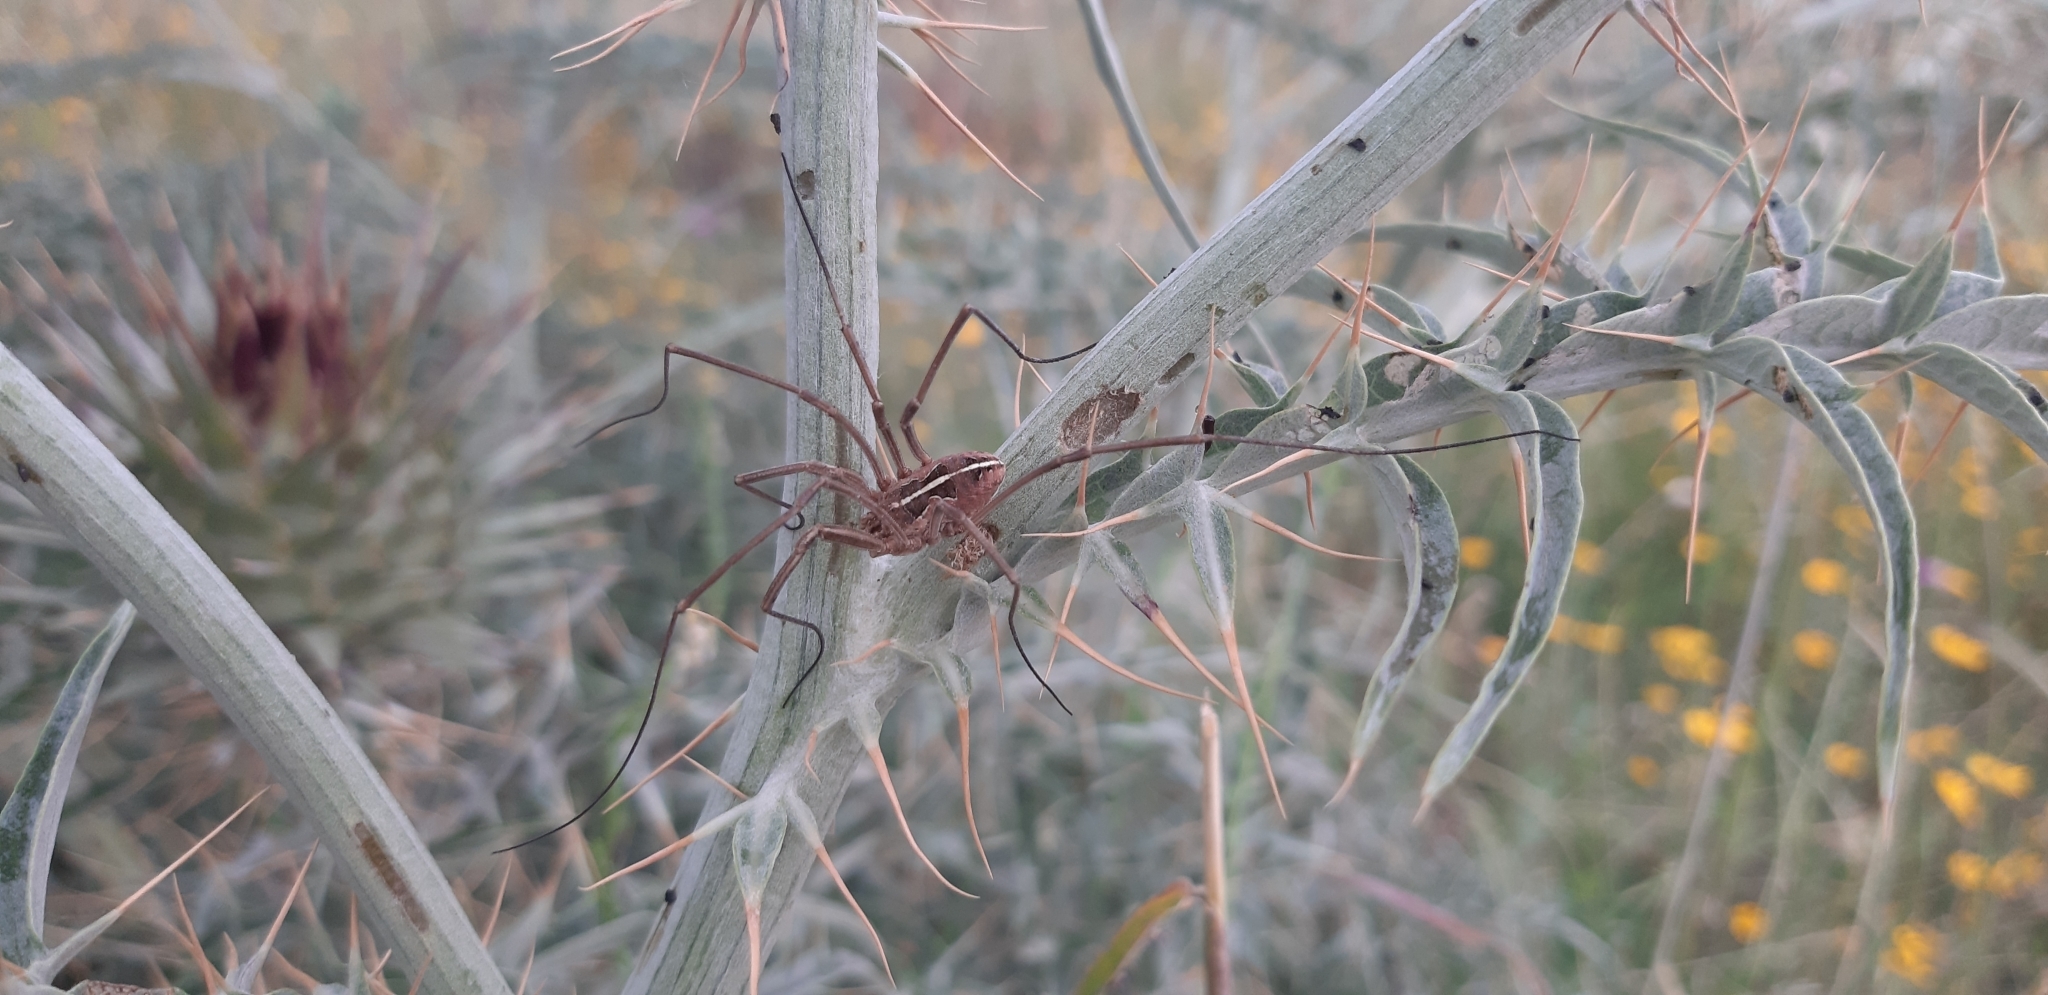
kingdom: Animalia
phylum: Arthropoda
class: Arachnida
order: Opiliones
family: Phalangiidae
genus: Metaphalangium
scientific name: Metaphalangium cirtanum
